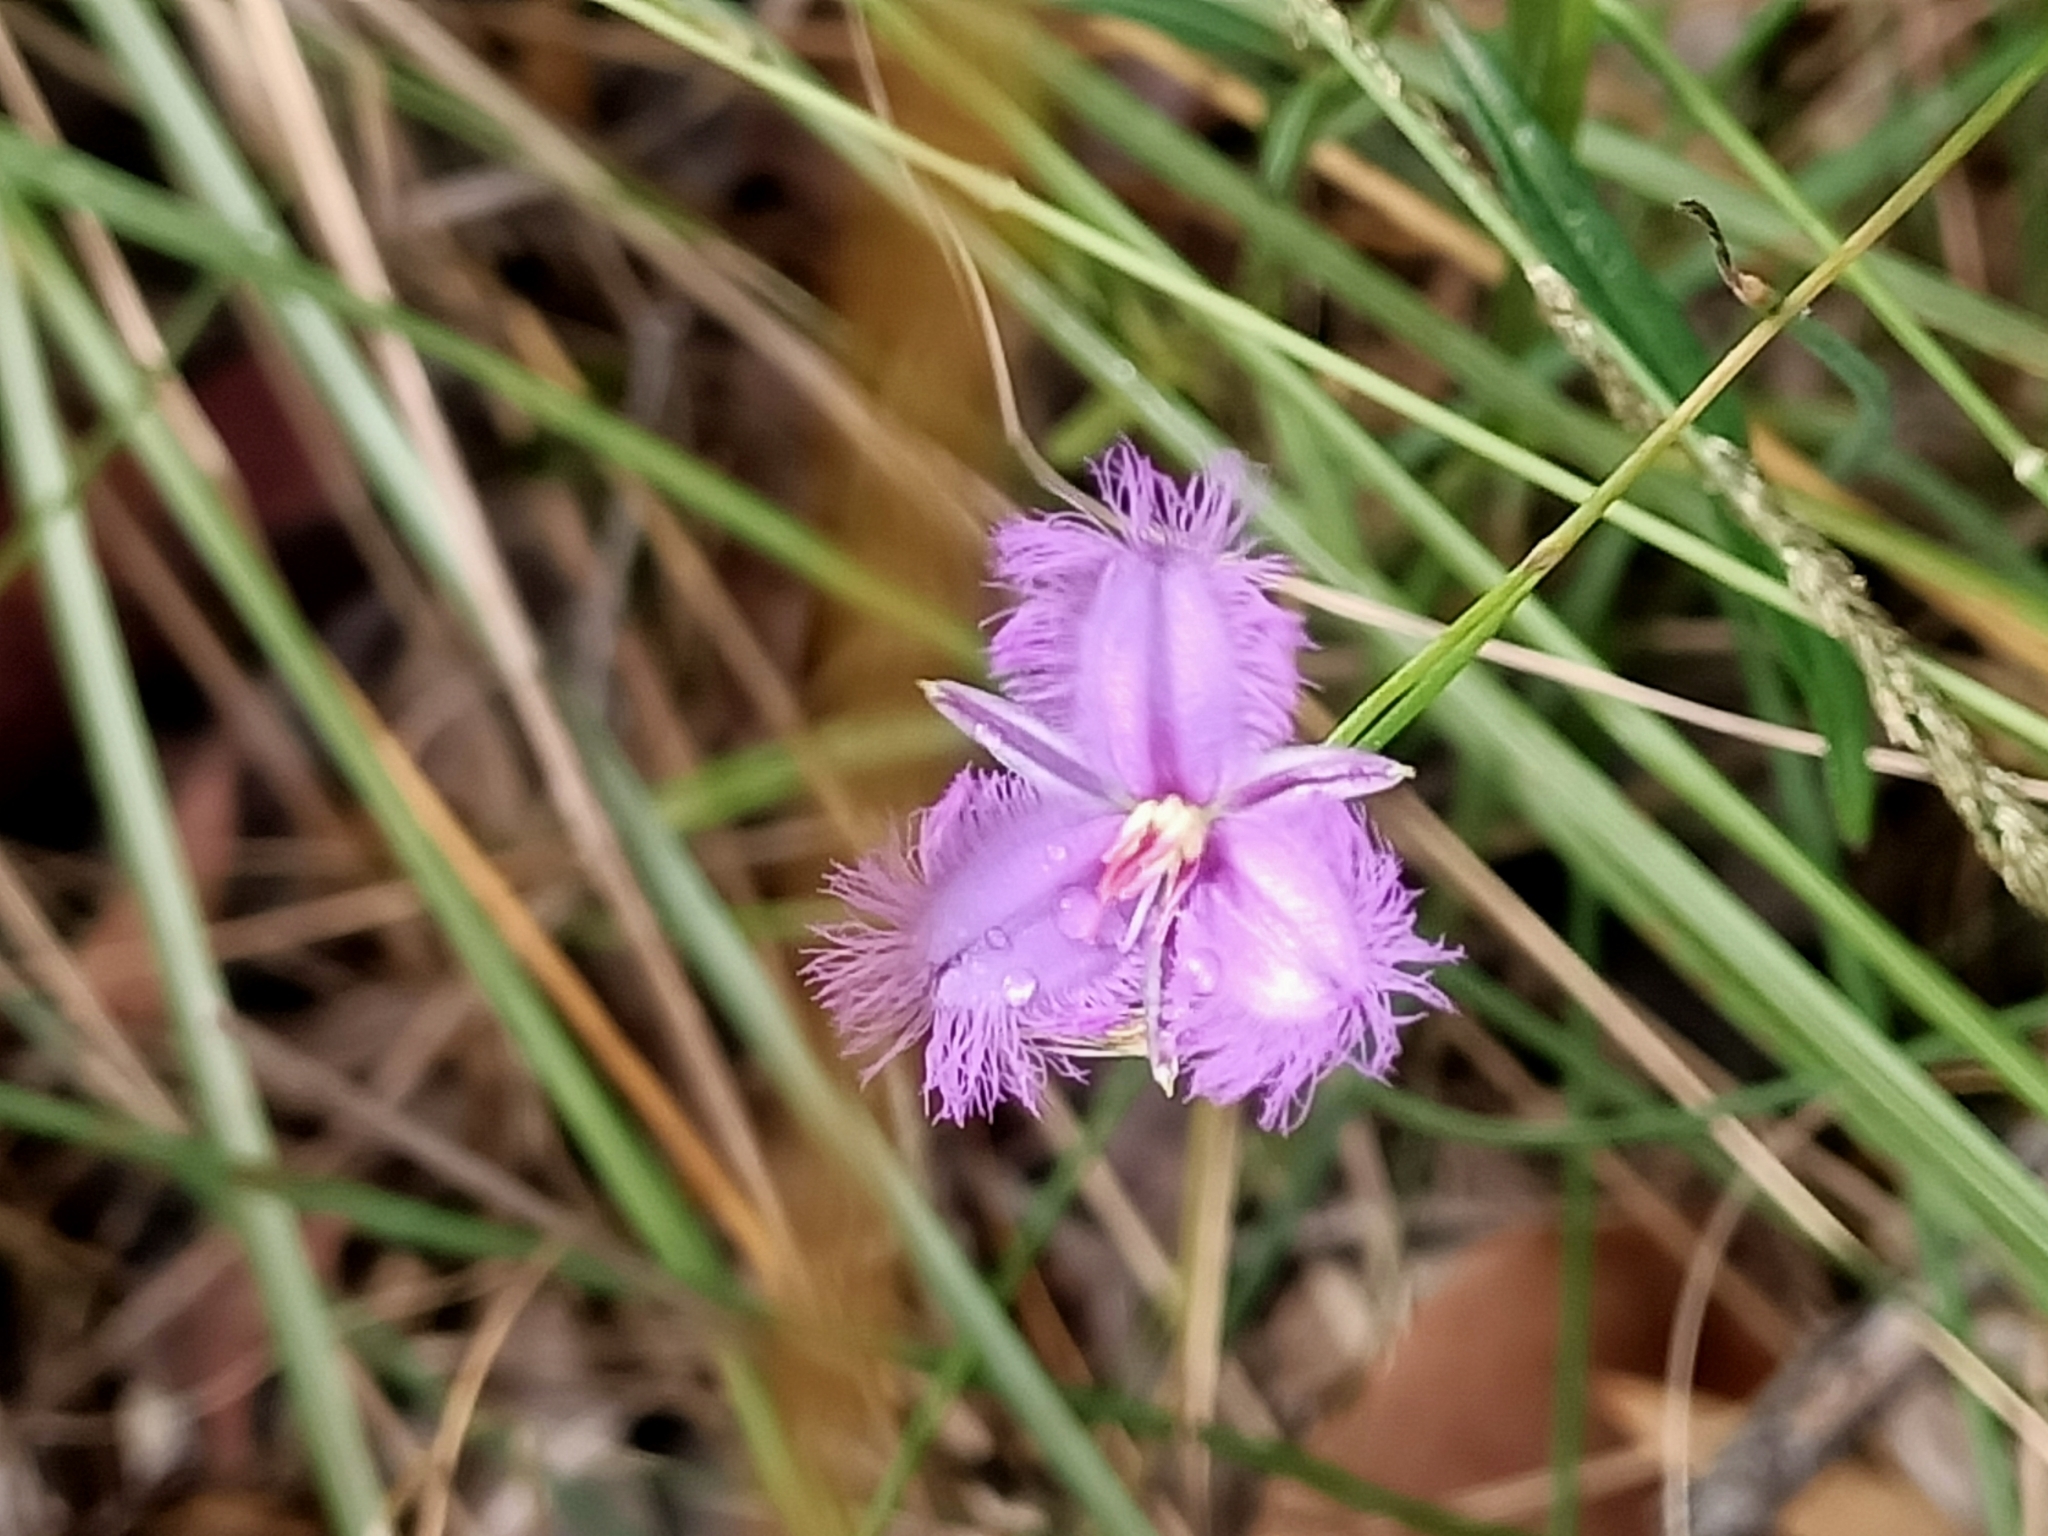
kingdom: Plantae
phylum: Tracheophyta
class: Liliopsida
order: Asparagales
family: Asparagaceae
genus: Thysanotus
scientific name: Thysanotus tuberosus
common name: Common fringed-lily
